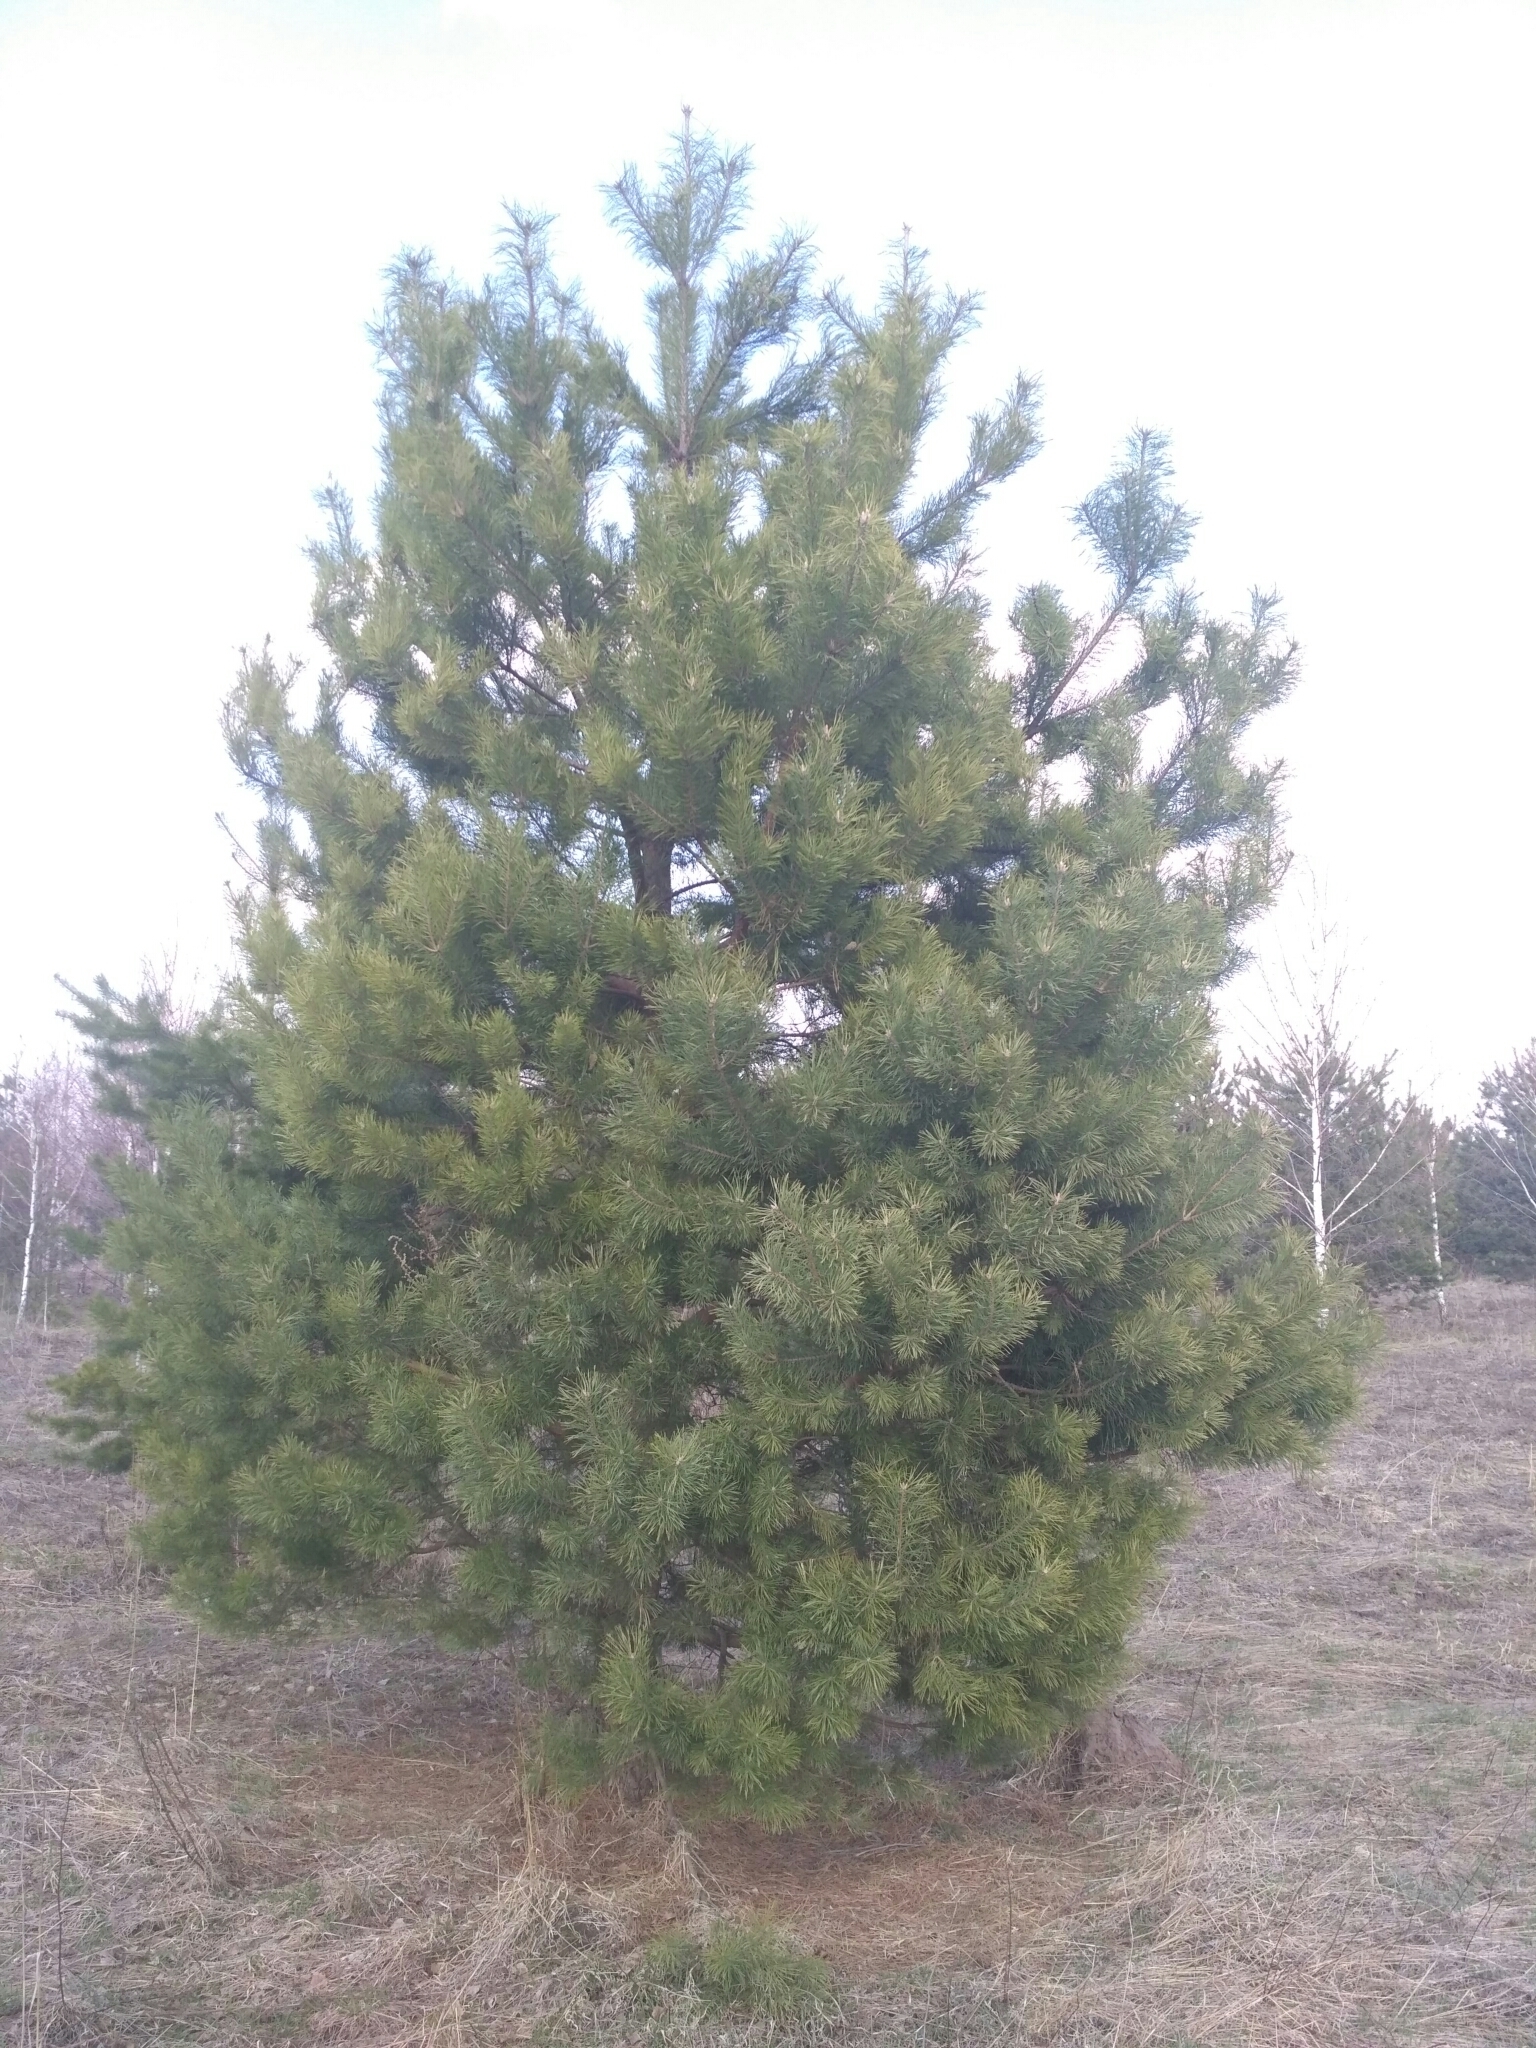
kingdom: Plantae
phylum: Tracheophyta
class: Pinopsida
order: Pinales
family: Pinaceae
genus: Pinus
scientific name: Pinus sylvestris
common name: Scots pine
